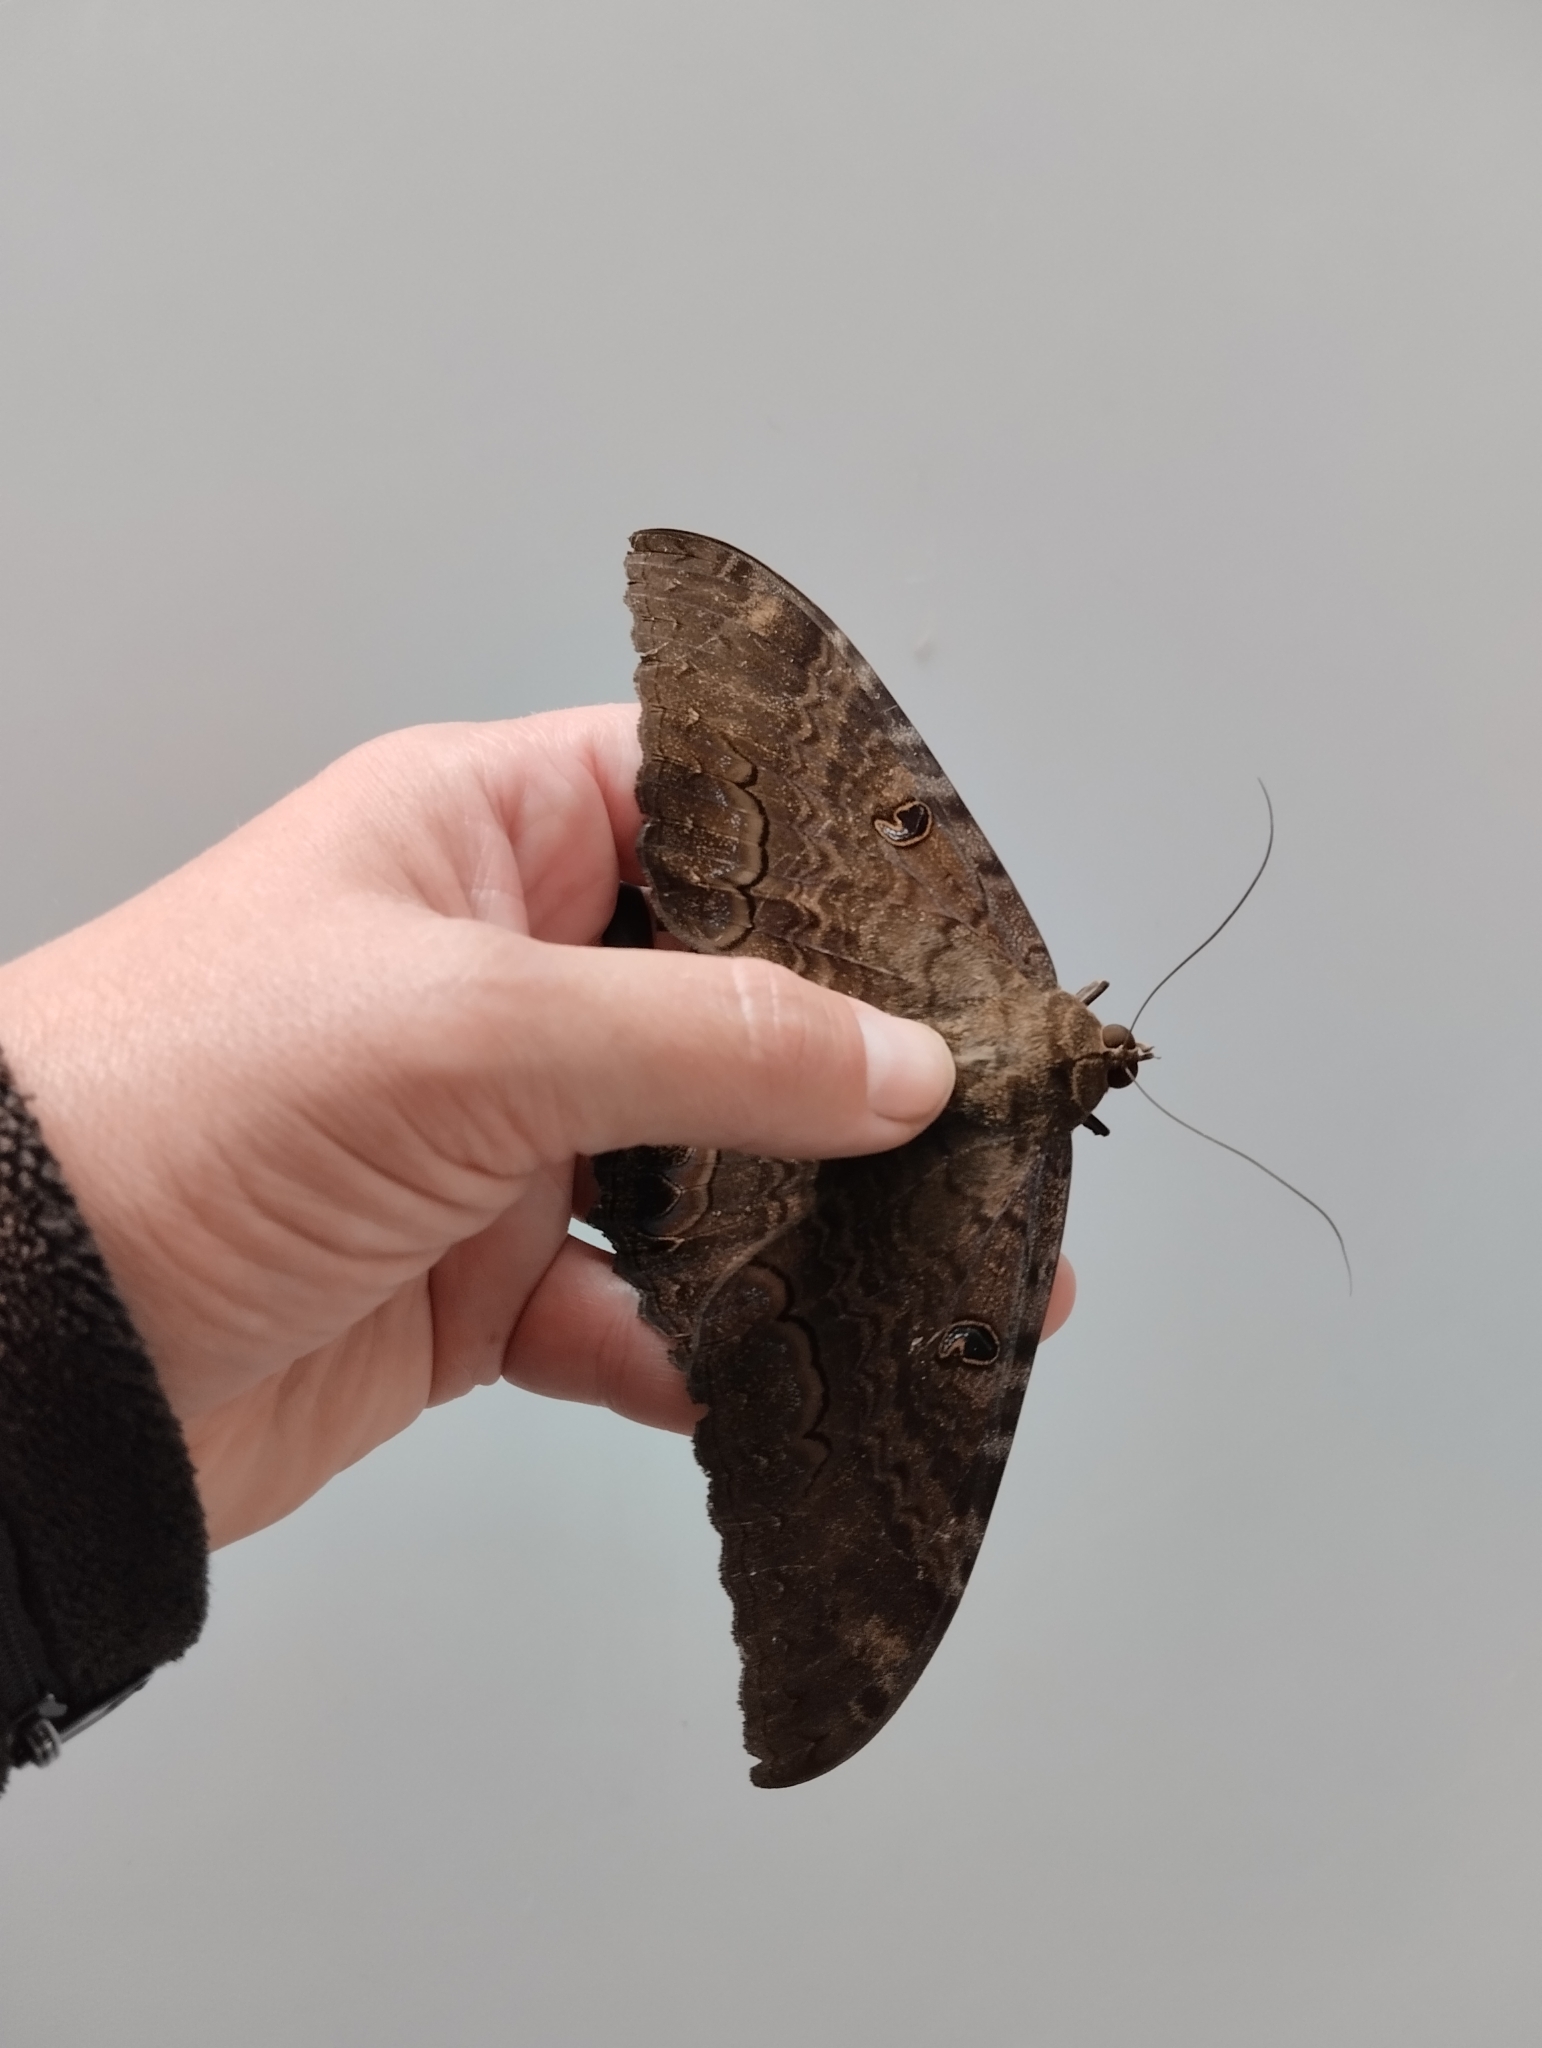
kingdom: Animalia
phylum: Arthropoda
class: Insecta
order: Lepidoptera
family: Erebidae
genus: Ascalapha
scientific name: Ascalapha odorata
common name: Black witch
